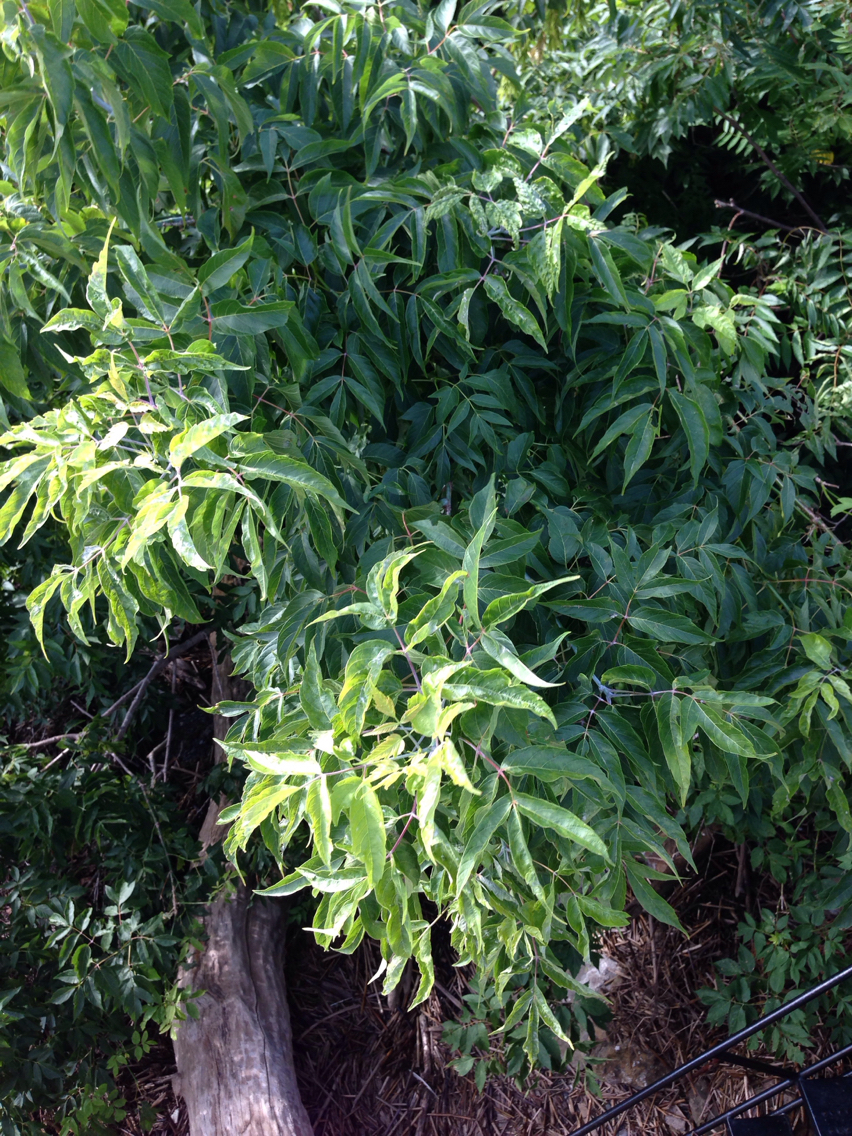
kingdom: Plantae
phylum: Tracheophyta
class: Magnoliopsida
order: Sapindales
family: Sapindaceae
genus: Acer
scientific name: Acer negundo
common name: Ashleaf maple
